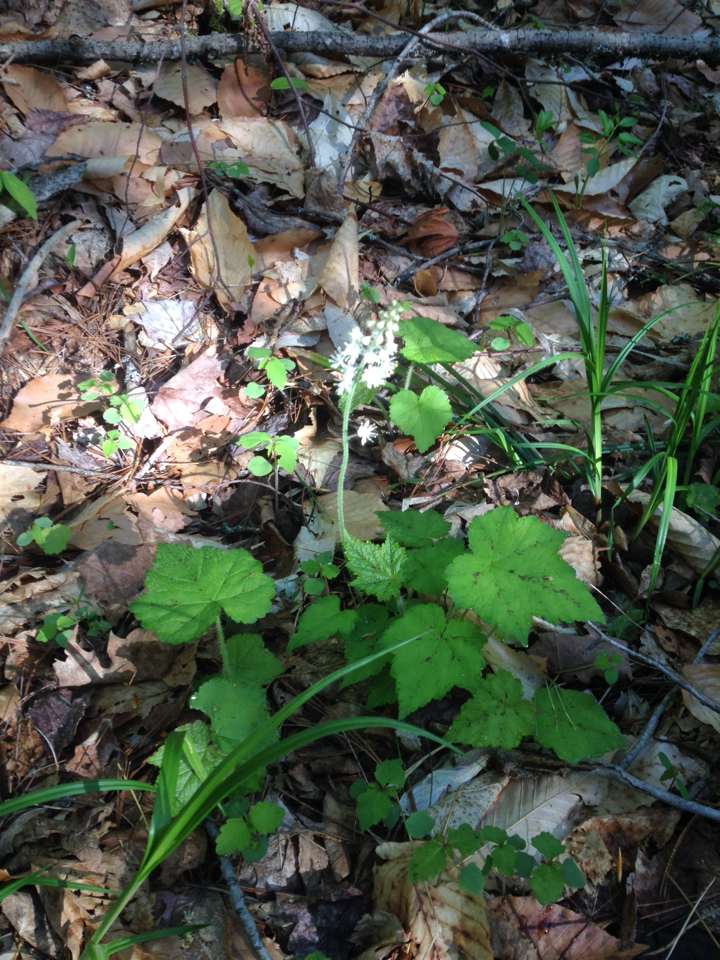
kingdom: Plantae
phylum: Tracheophyta
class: Magnoliopsida
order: Saxifragales
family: Saxifragaceae
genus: Tiarella
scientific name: Tiarella stolonifera
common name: Stoloniferous foamflower
